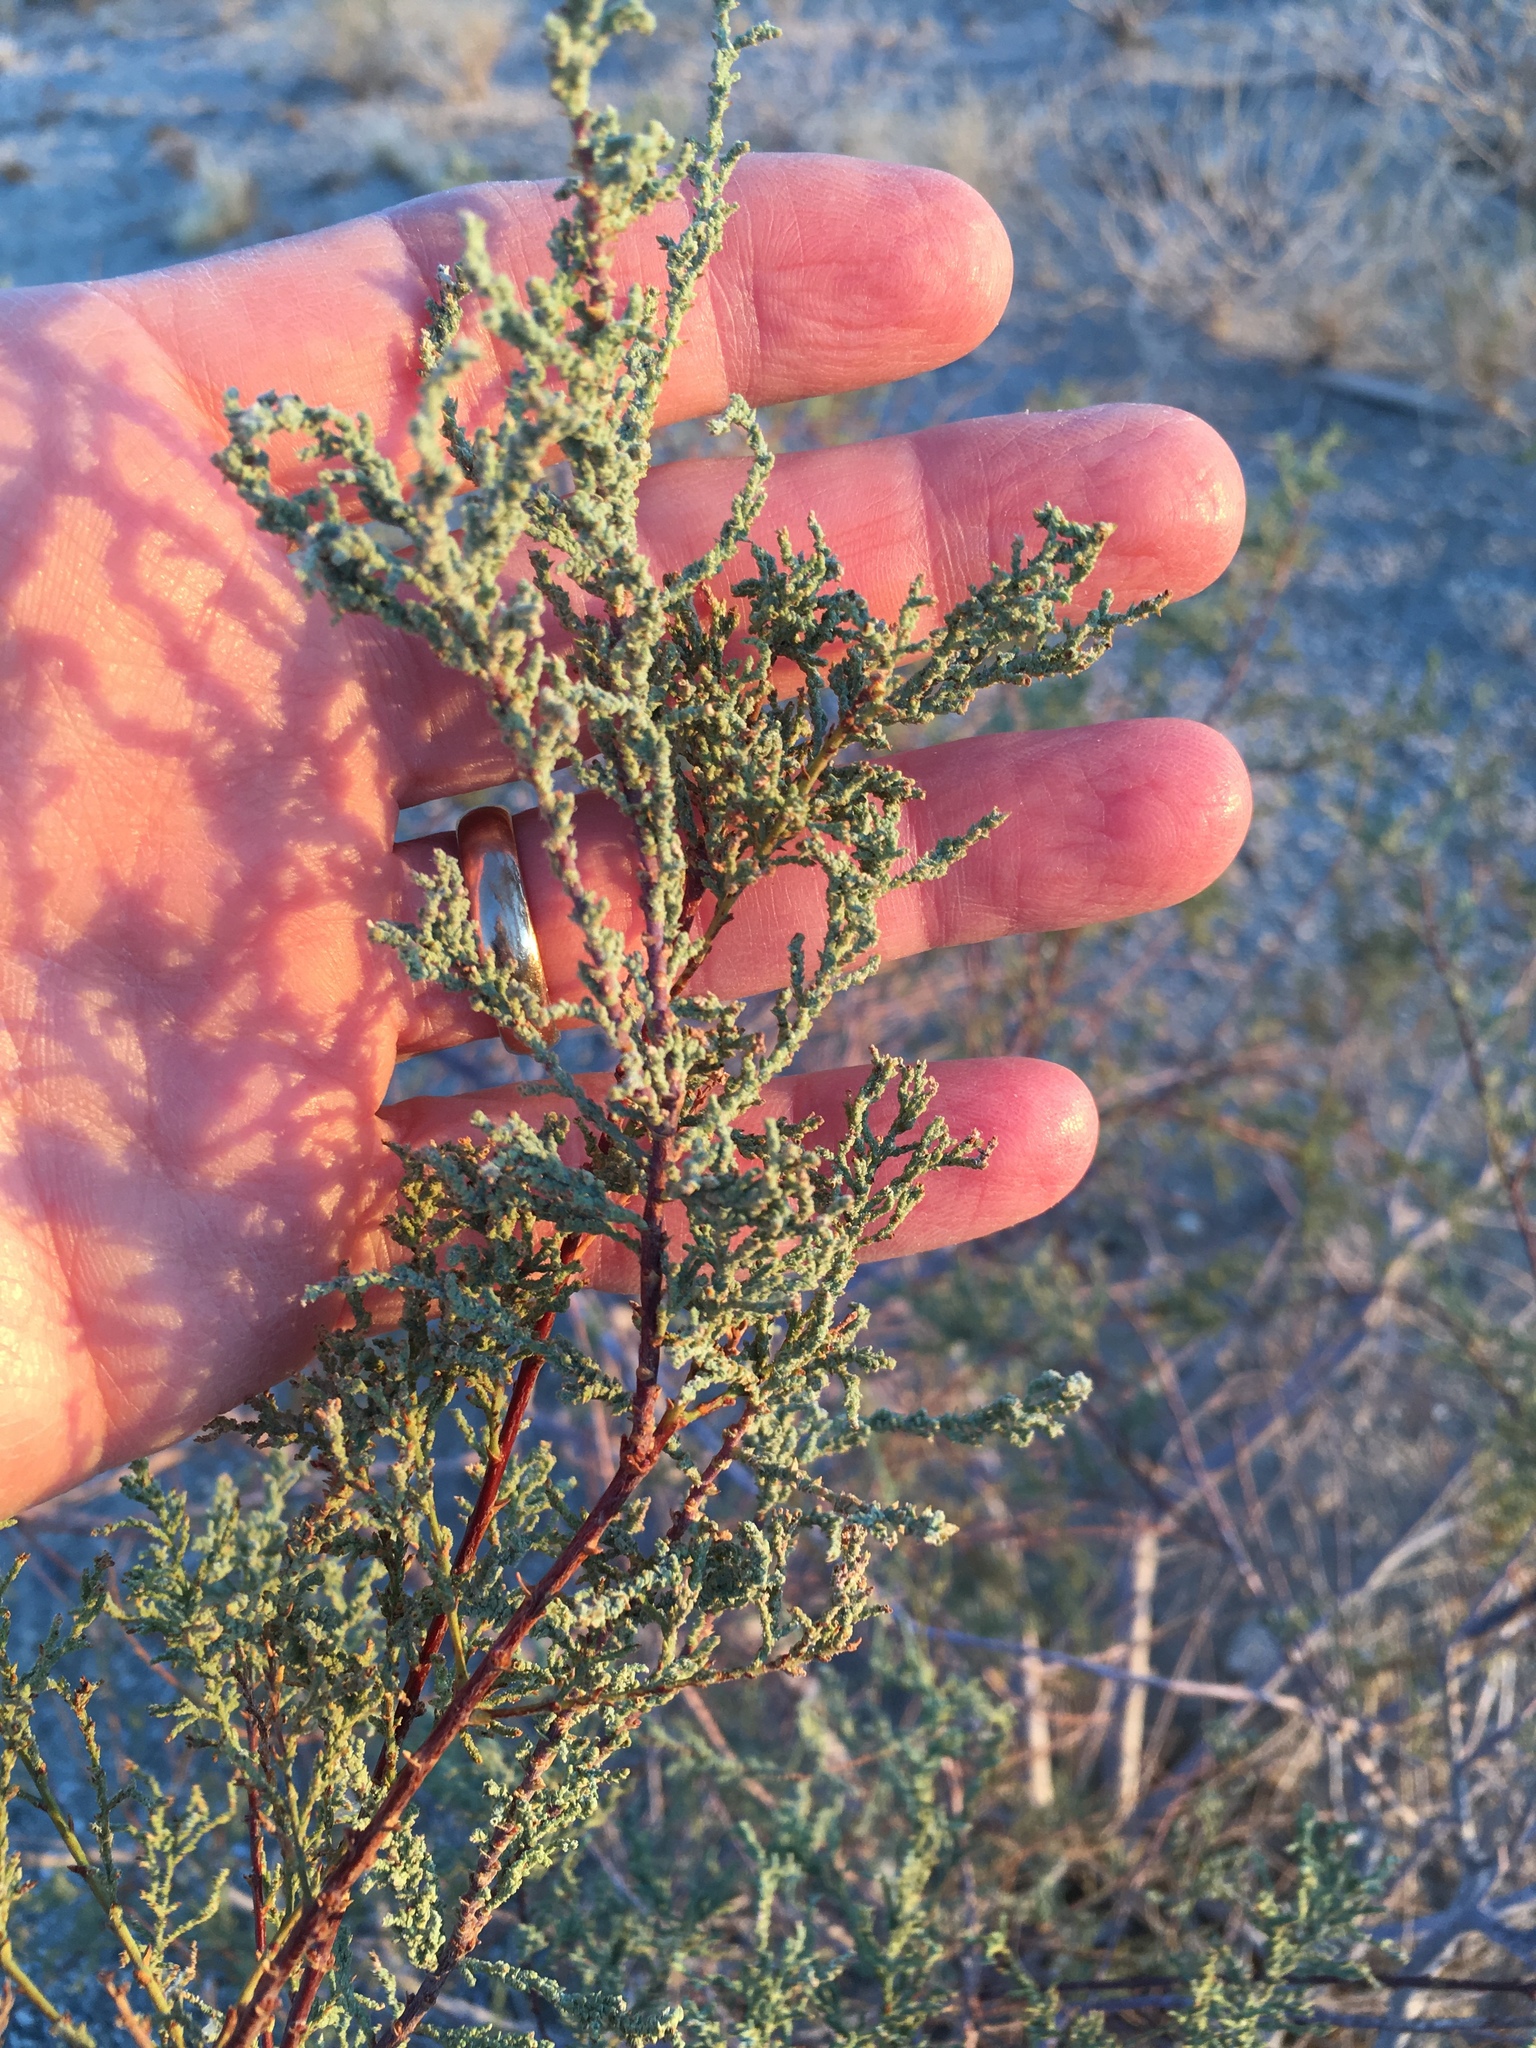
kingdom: Plantae
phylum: Tracheophyta
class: Magnoliopsida
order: Caryophyllales
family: Tamaricaceae
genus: Tamarix
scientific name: Tamarix
